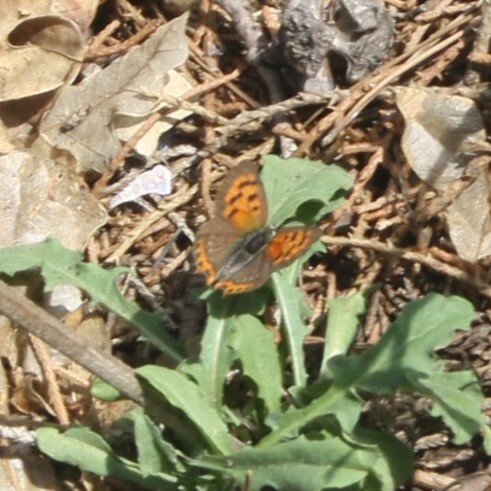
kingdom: Animalia
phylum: Arthropoda
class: Insecta
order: Lepidoptera
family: Lycaenidae
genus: Lycaena
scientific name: Lycaena phlaeas
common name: Small copper
